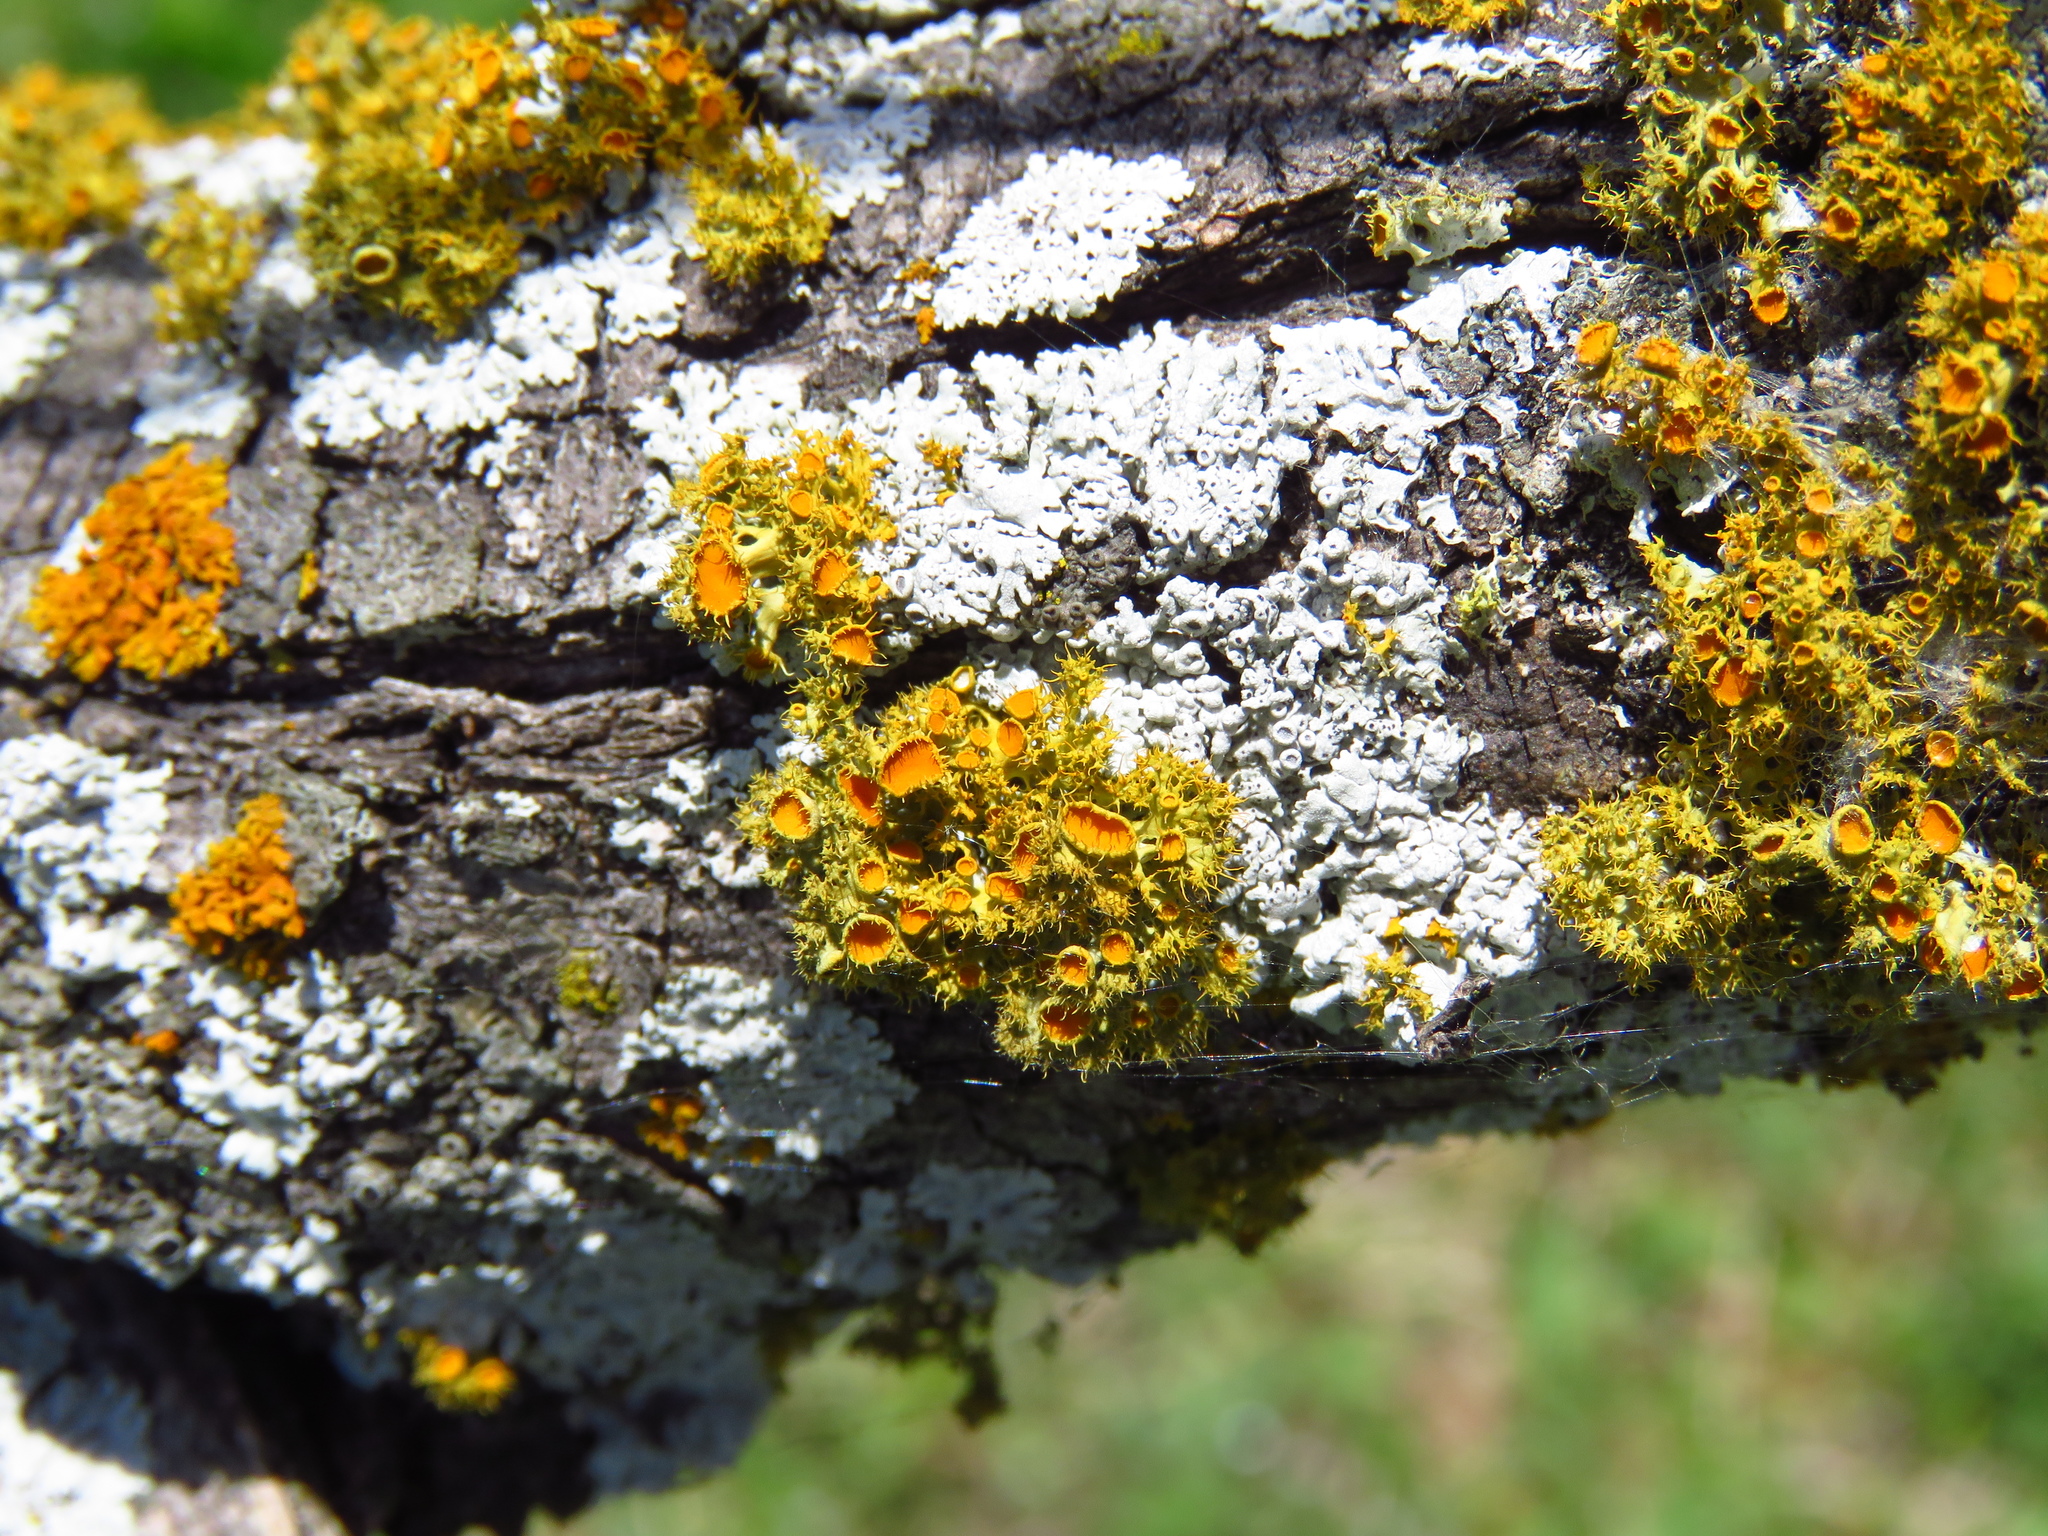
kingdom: Fungi
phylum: Ascomycota
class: Lecanoromycetes
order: Teloschistales
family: Teloschistaceae
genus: Niorma
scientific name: Niorma chrysophthalma
